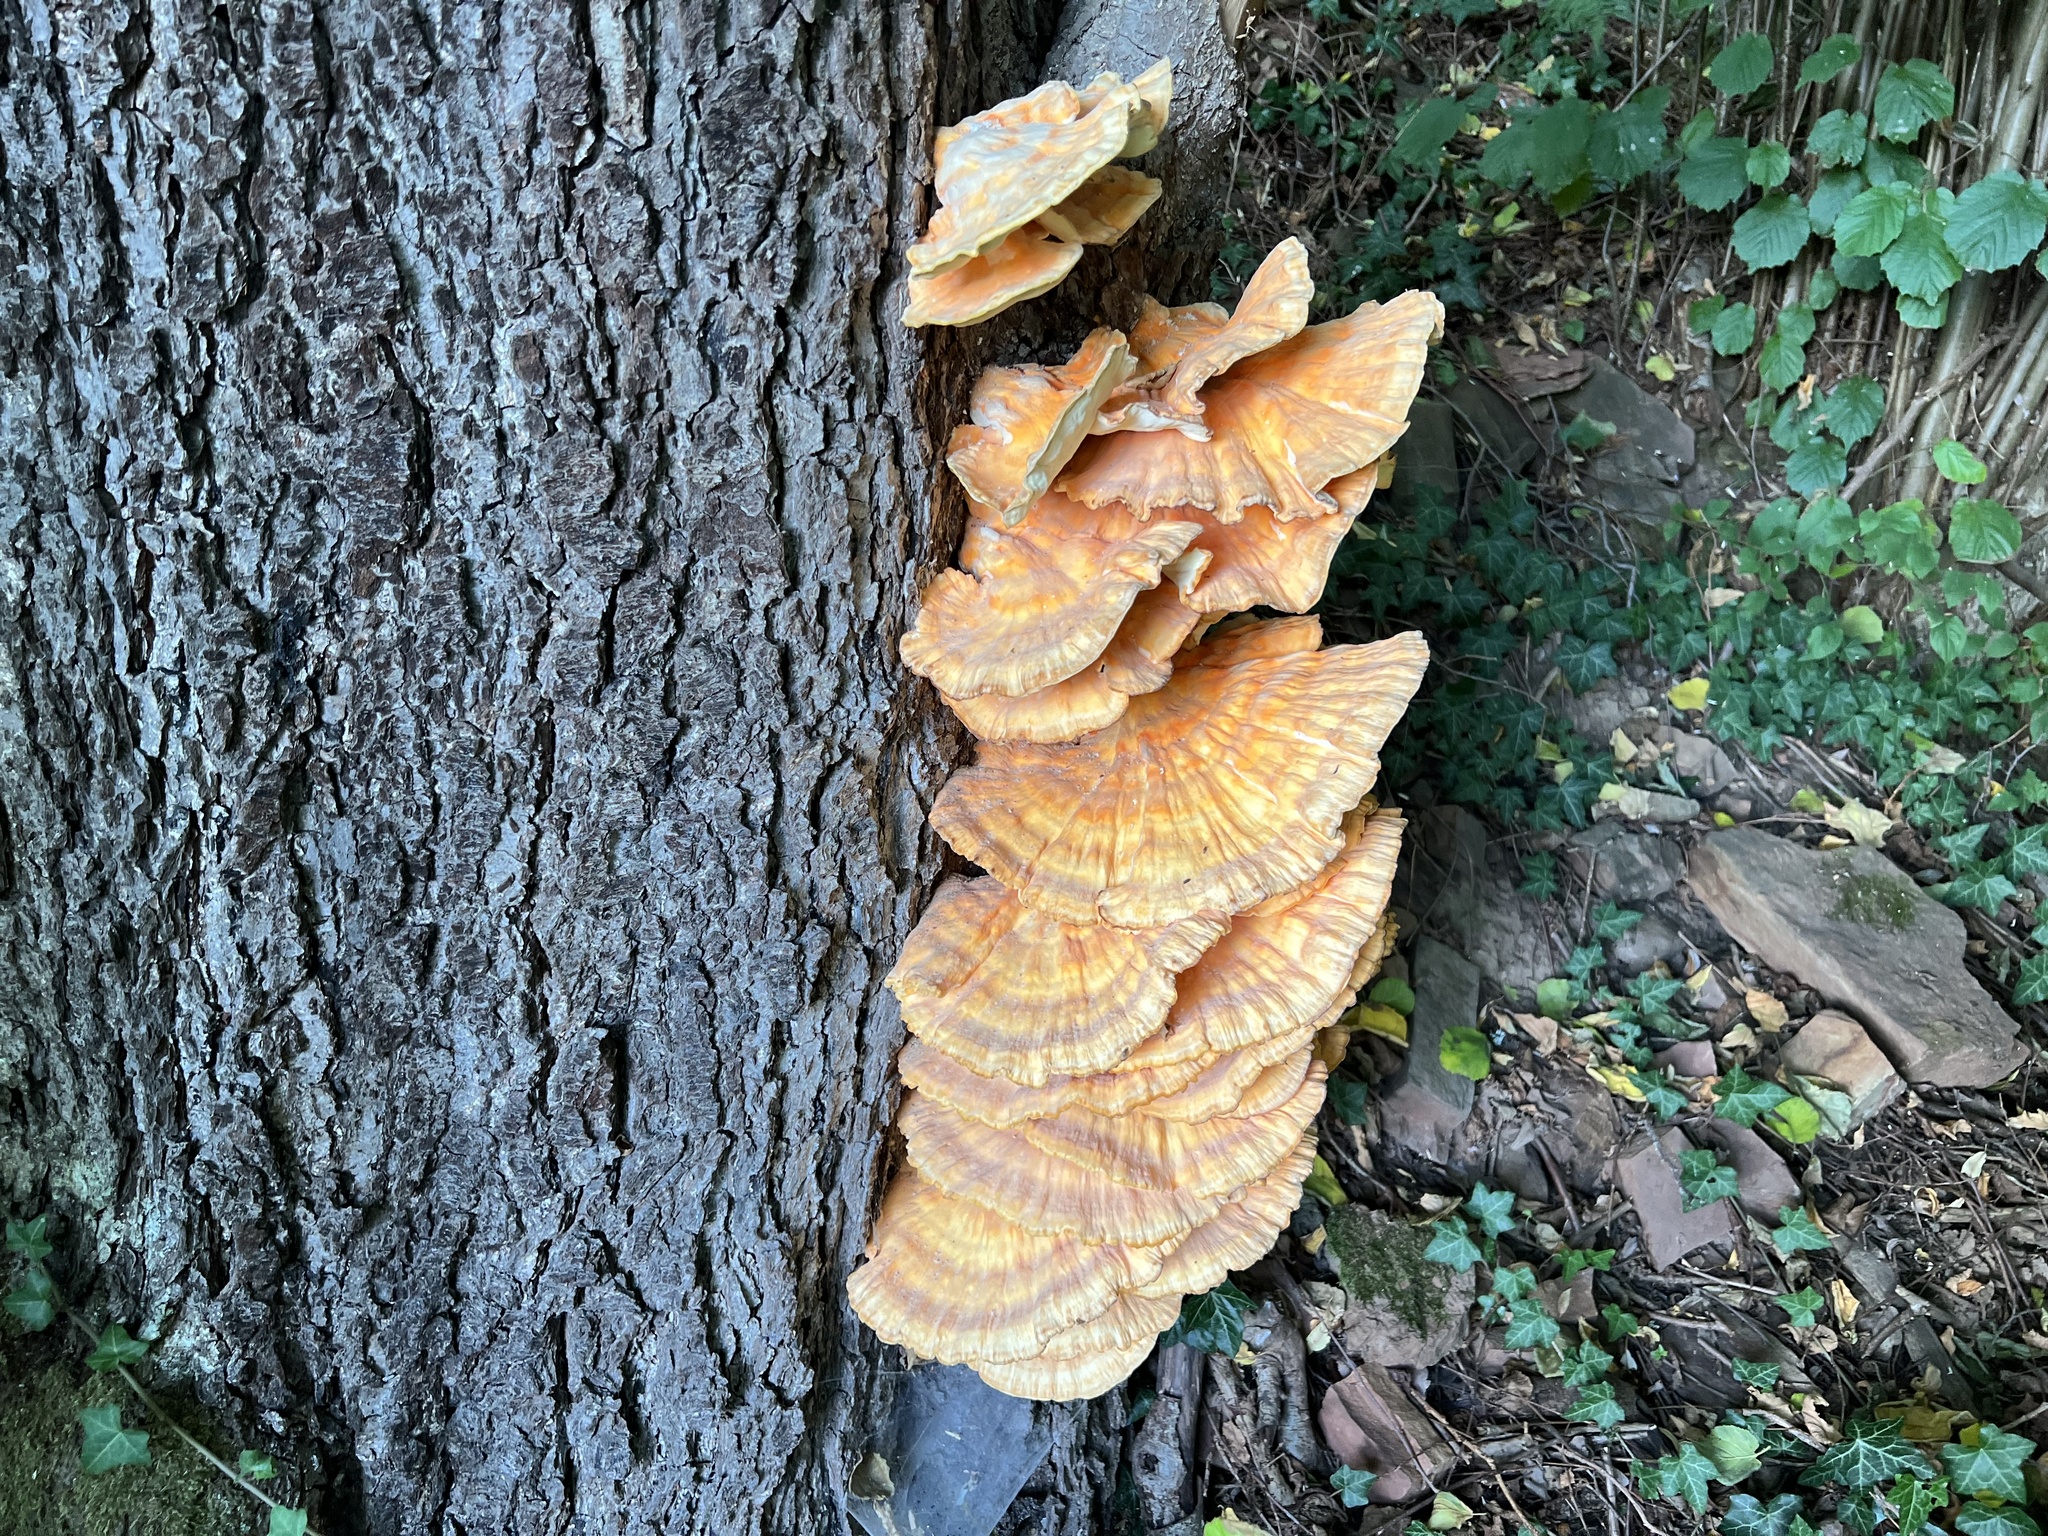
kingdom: Fungi
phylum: Basidiomycota
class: Agaricomycetes
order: Polyporales
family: Laetiporaceae
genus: Laetiporus
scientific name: Laetiporus sulphureus
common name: Chicken of the woods
